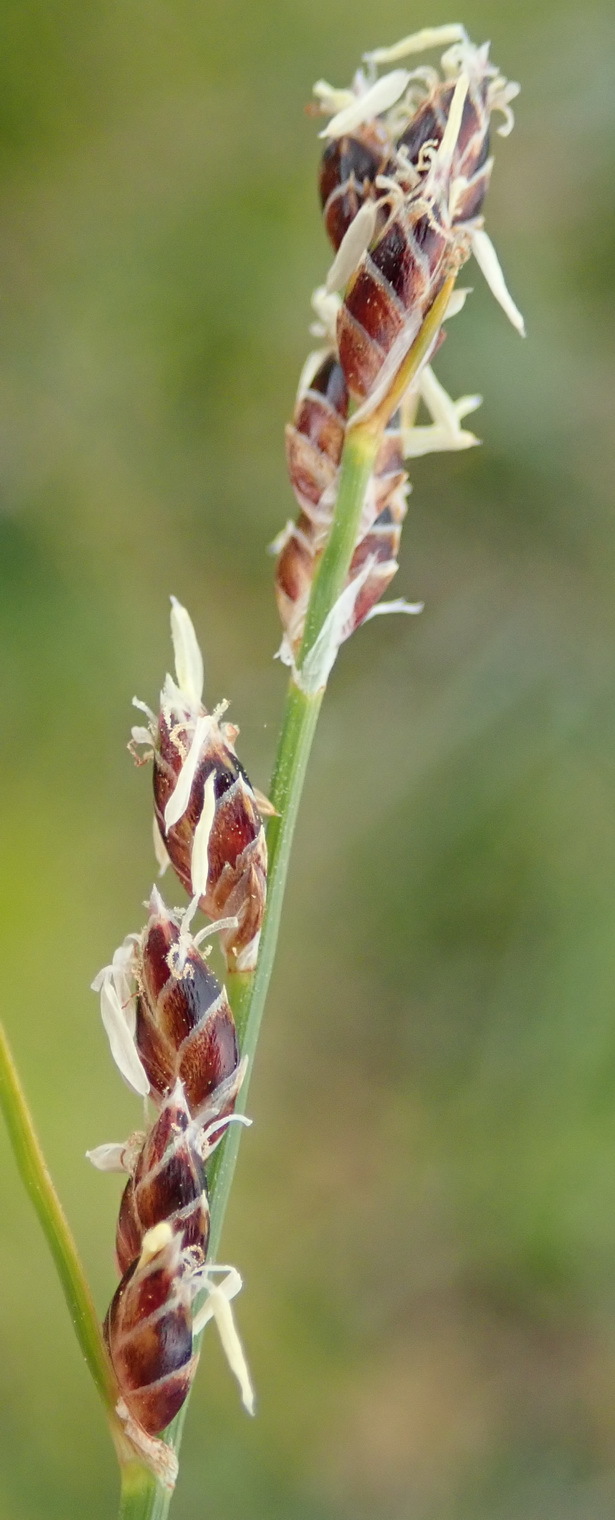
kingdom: Plantae
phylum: Tracheophyta
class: Liliopsida
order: Poales
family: Cyperaceae
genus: Ficinia
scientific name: Ficinia secunda
